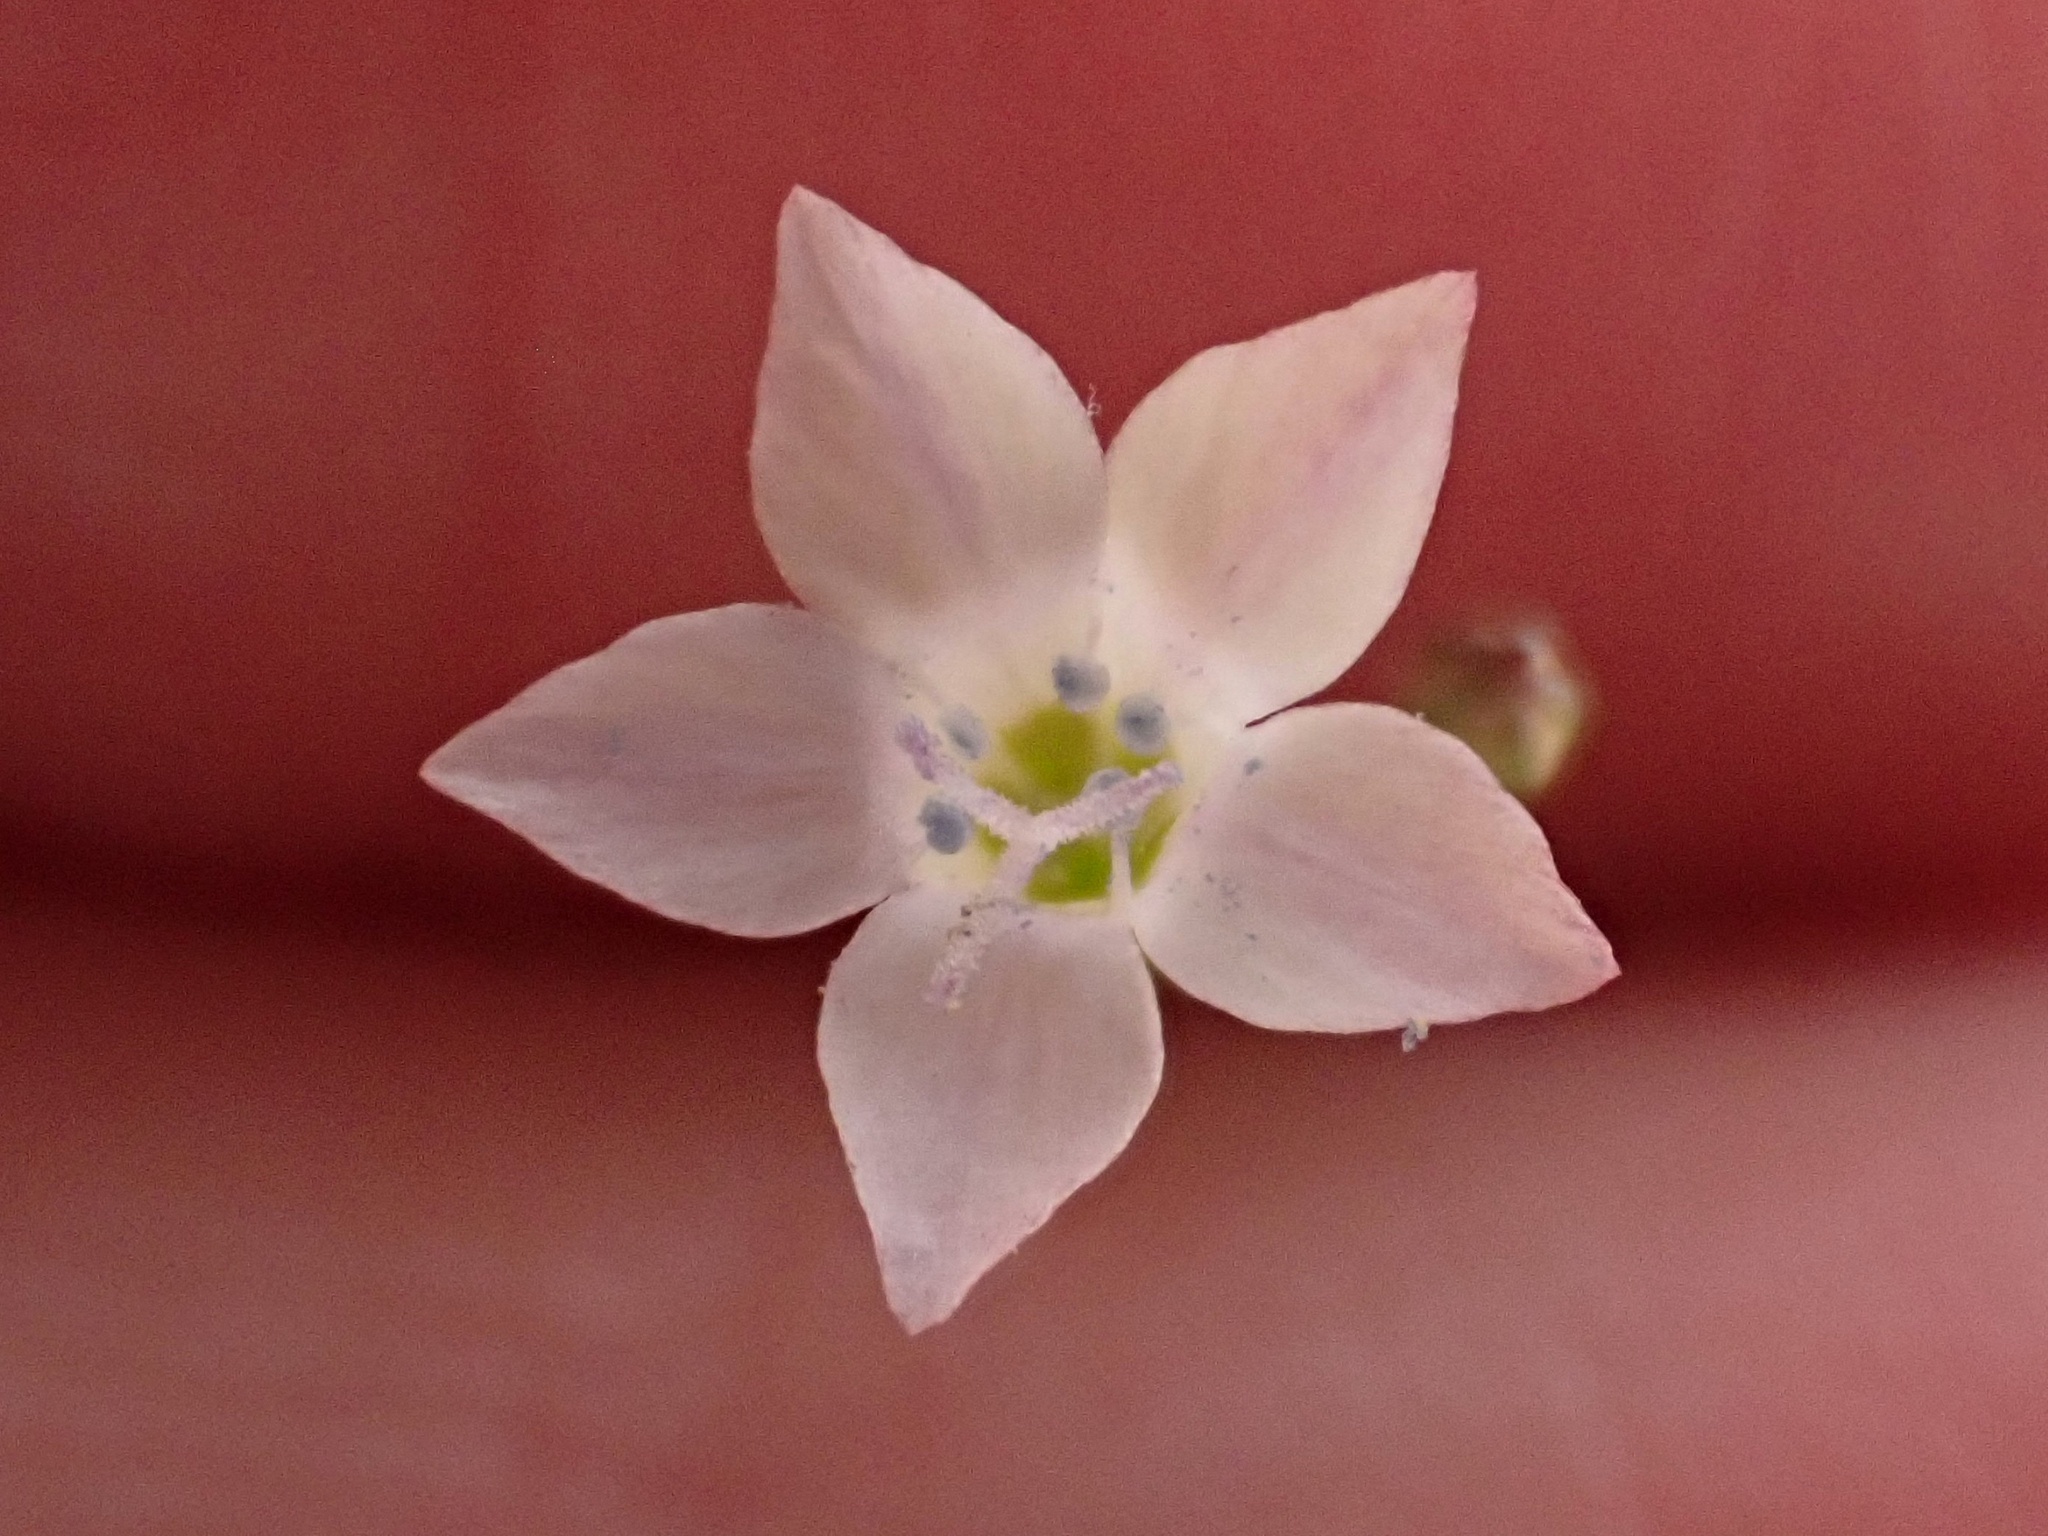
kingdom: Plantae
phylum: Tracheophyta
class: Magnoliopsida
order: Ericales
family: Polemoniaceae
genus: Saltugilia
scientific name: Saltugilia australis
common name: Southern gilia
